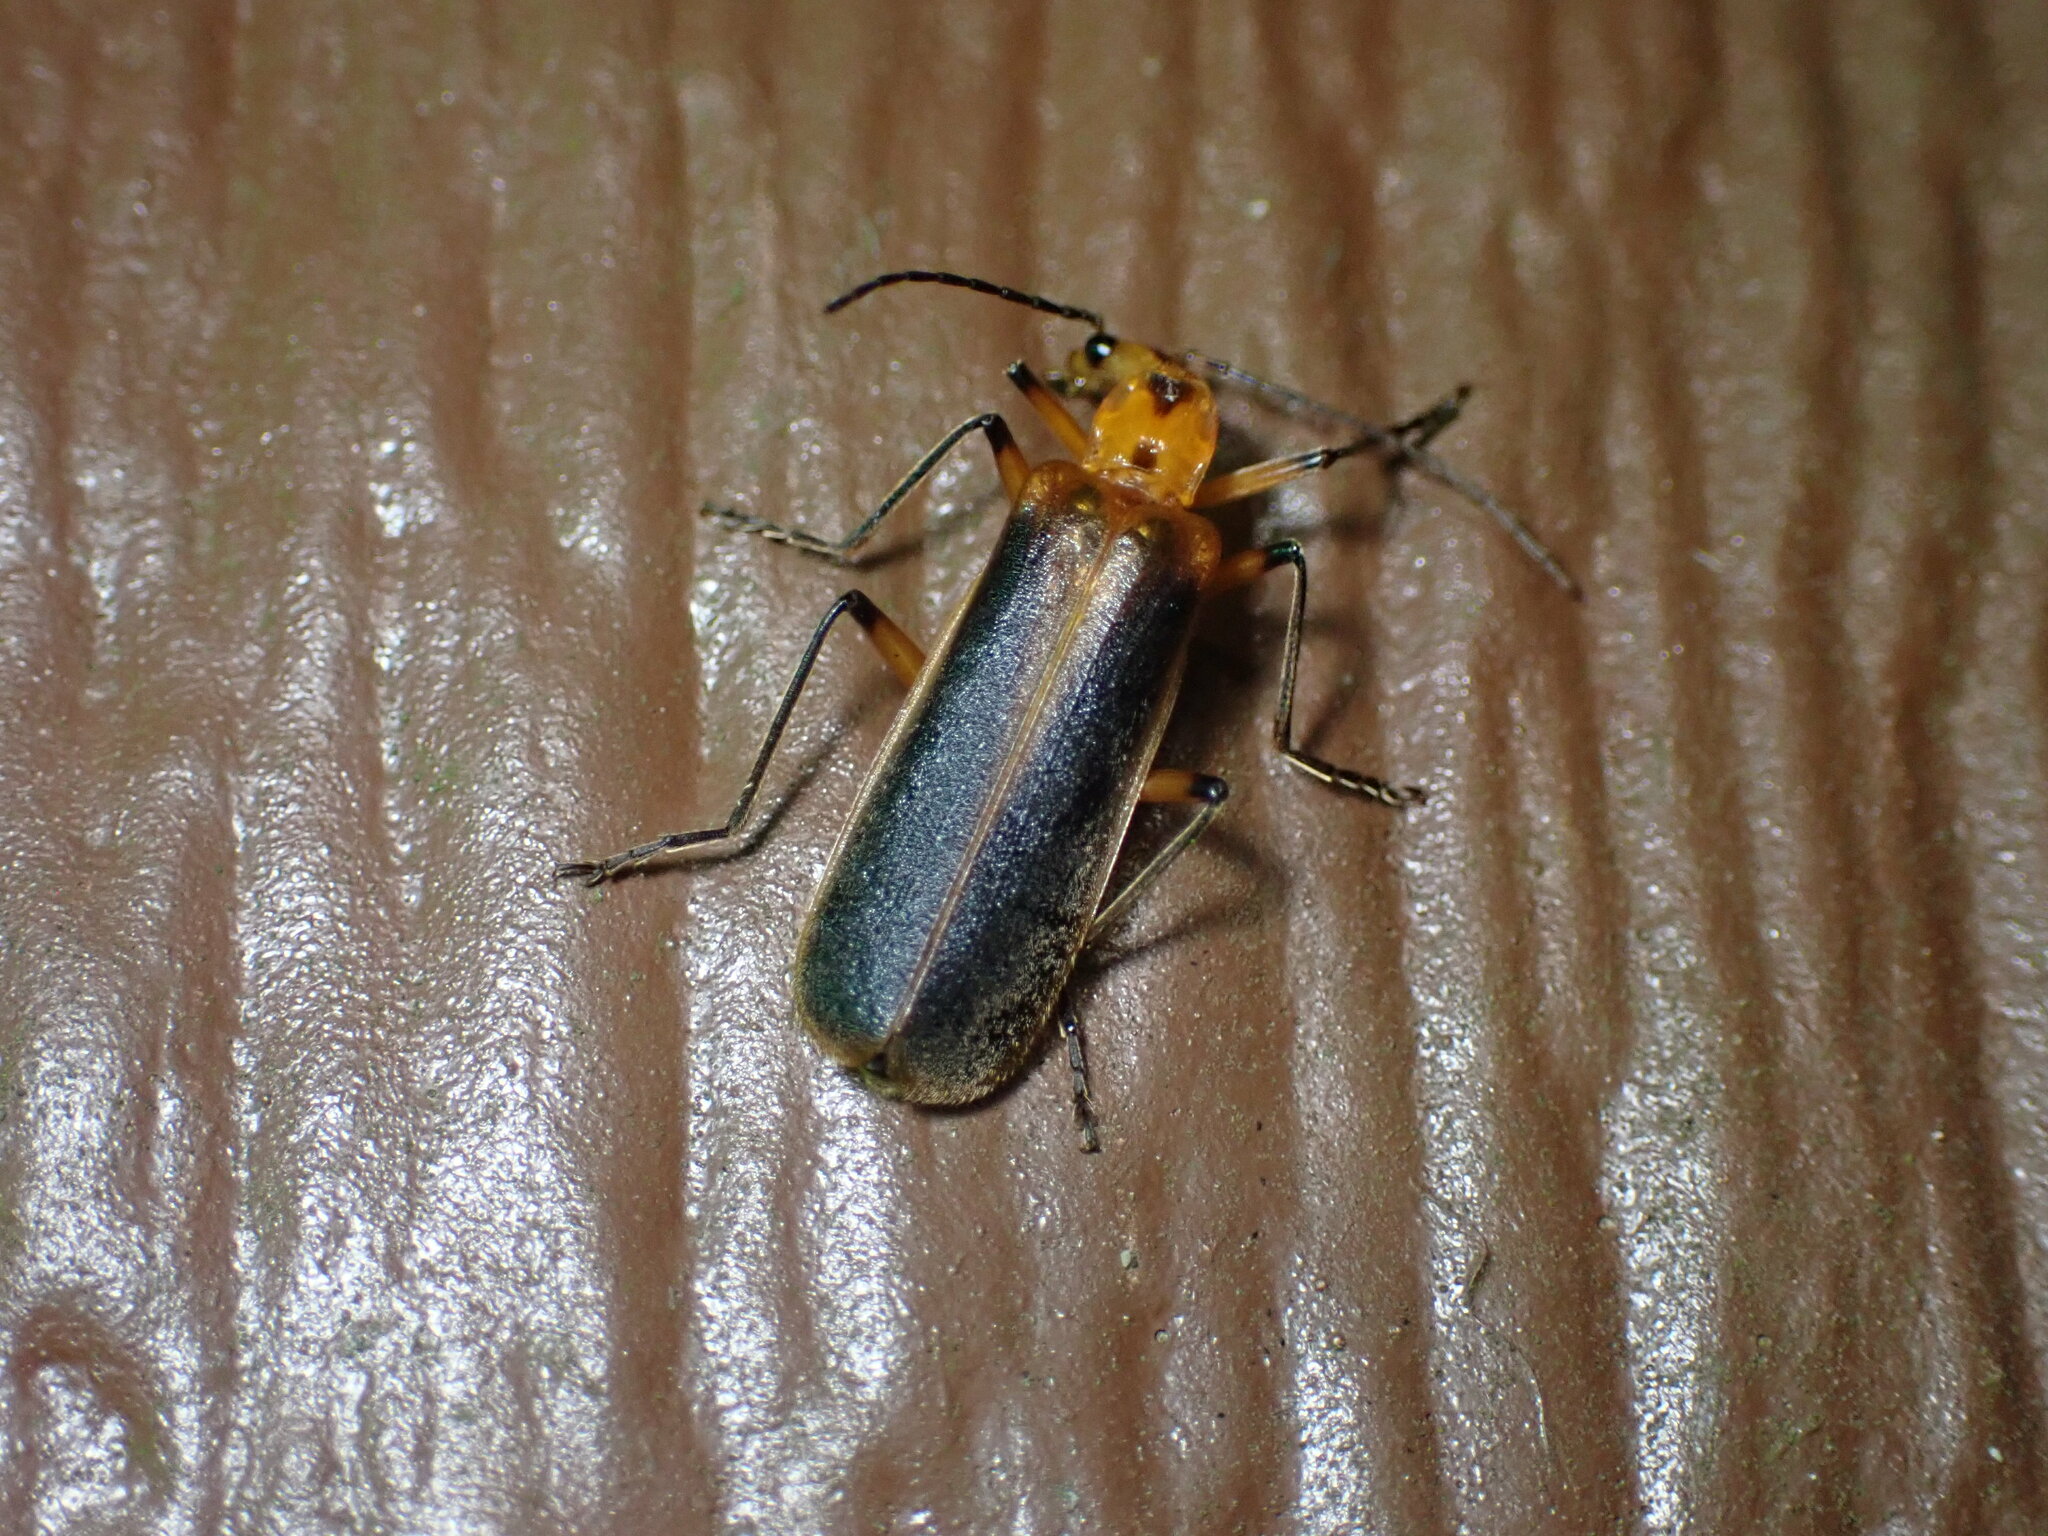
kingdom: Animalia
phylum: Arthropoda
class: Insecta
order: Coleoptera
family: Cantharidae
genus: Podabrus
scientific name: Podabrus protensus
